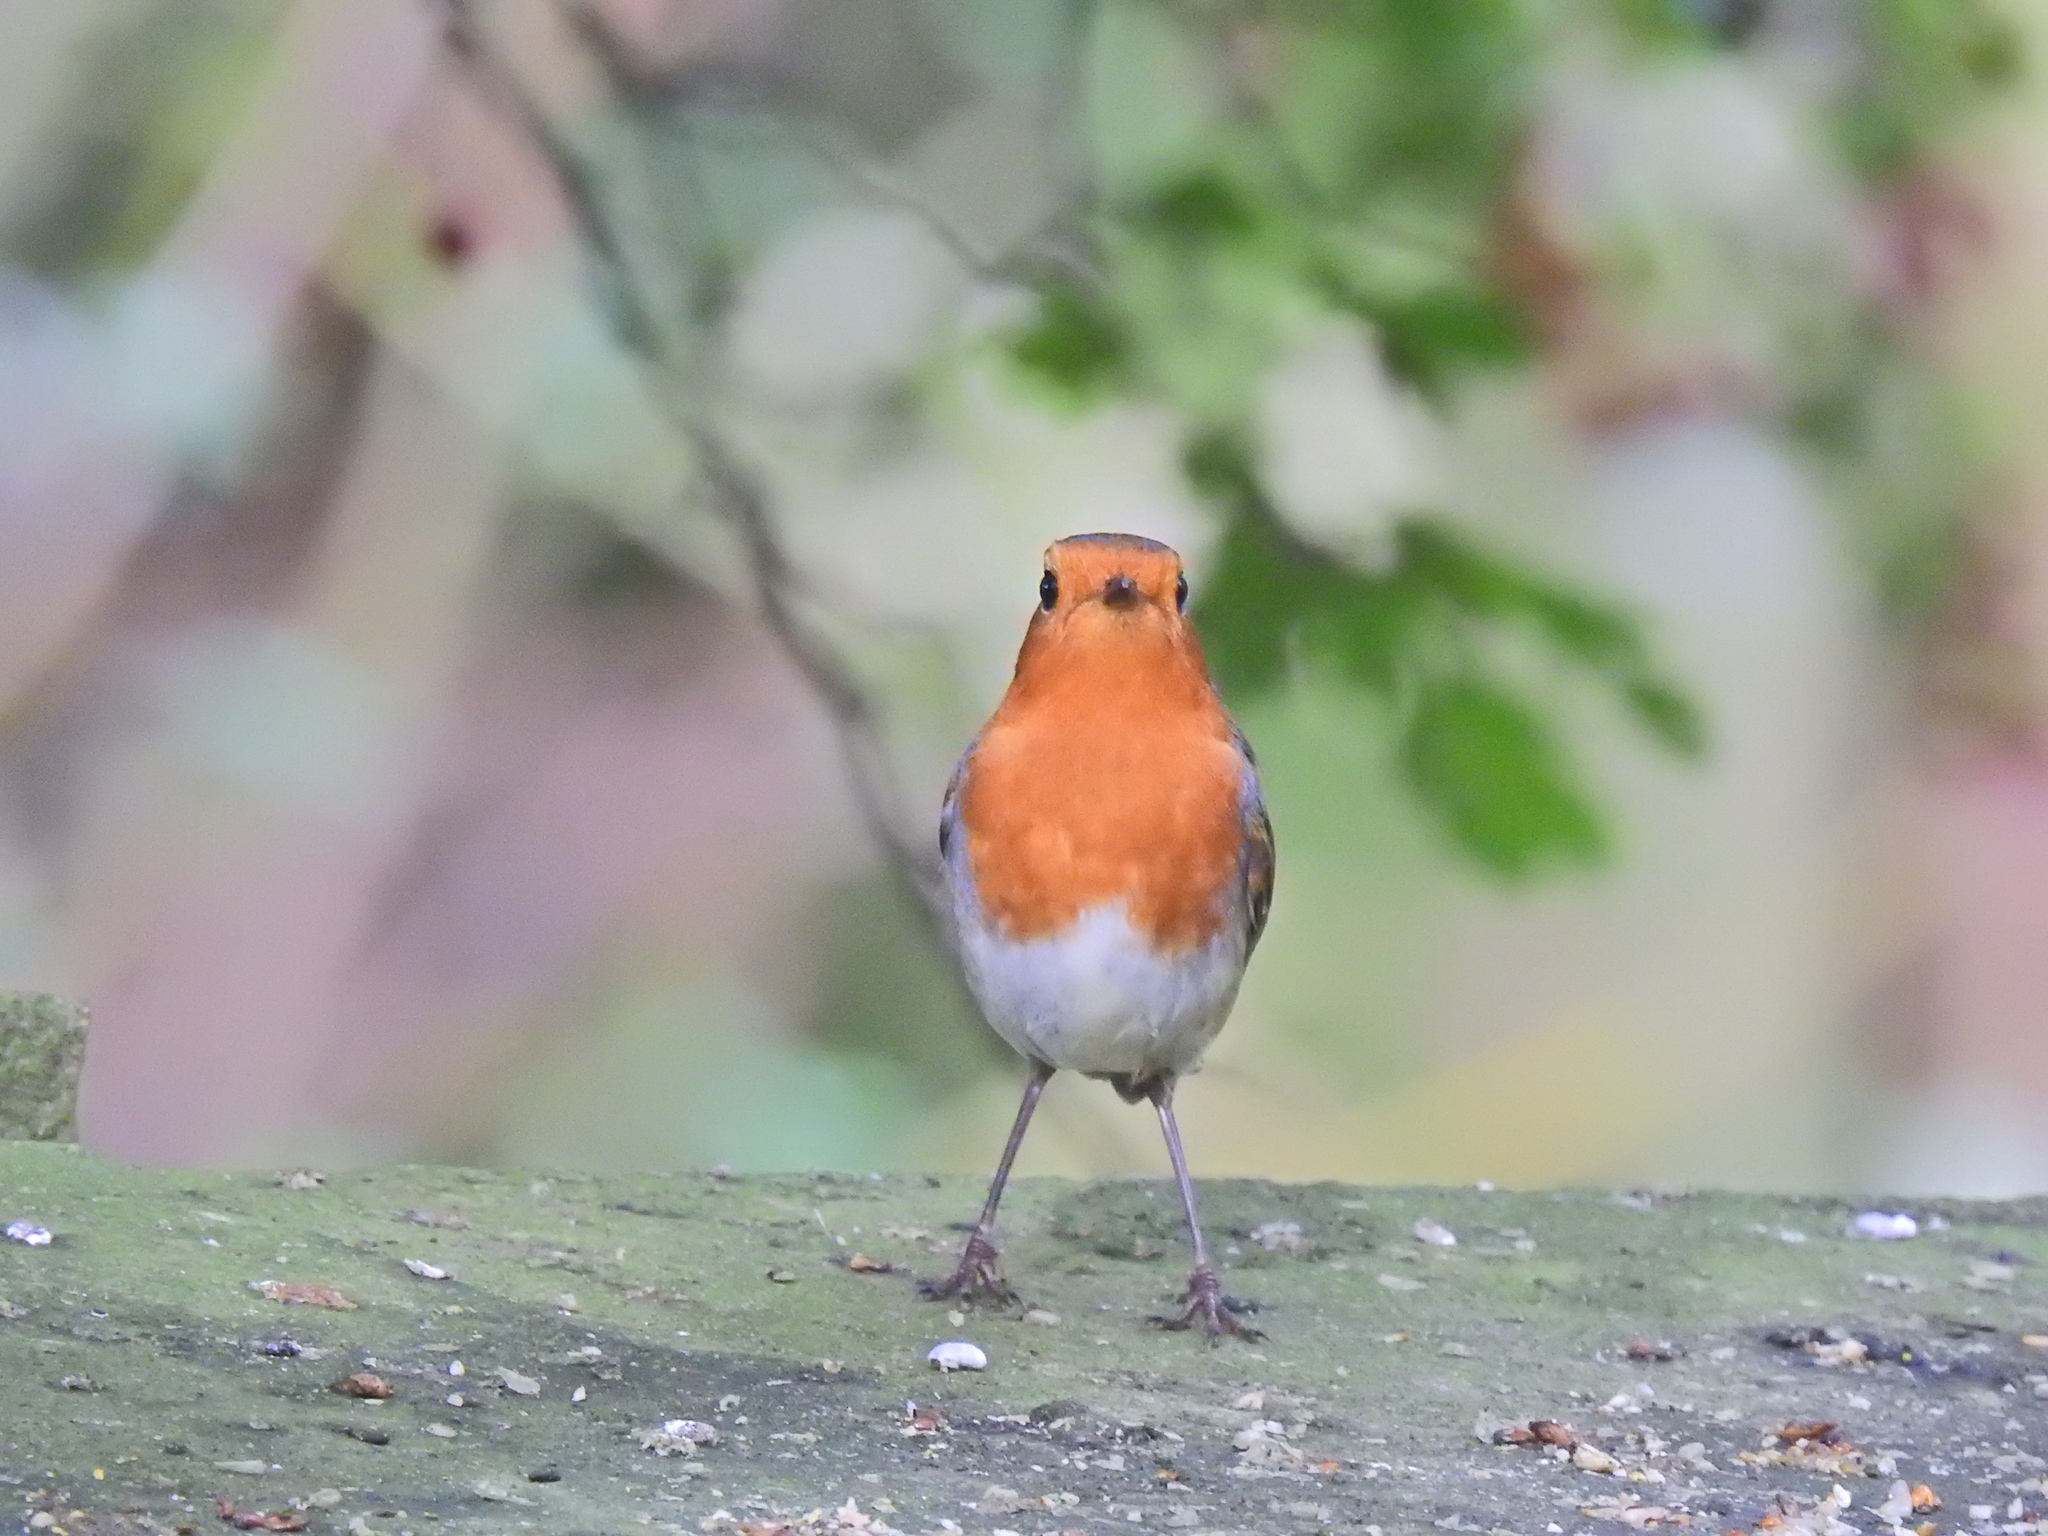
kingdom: Animalia
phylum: Chordata
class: Aves
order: Passeriformes
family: Muscicapidae
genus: Erithacus
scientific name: Erithacus rubecula
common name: European robin
